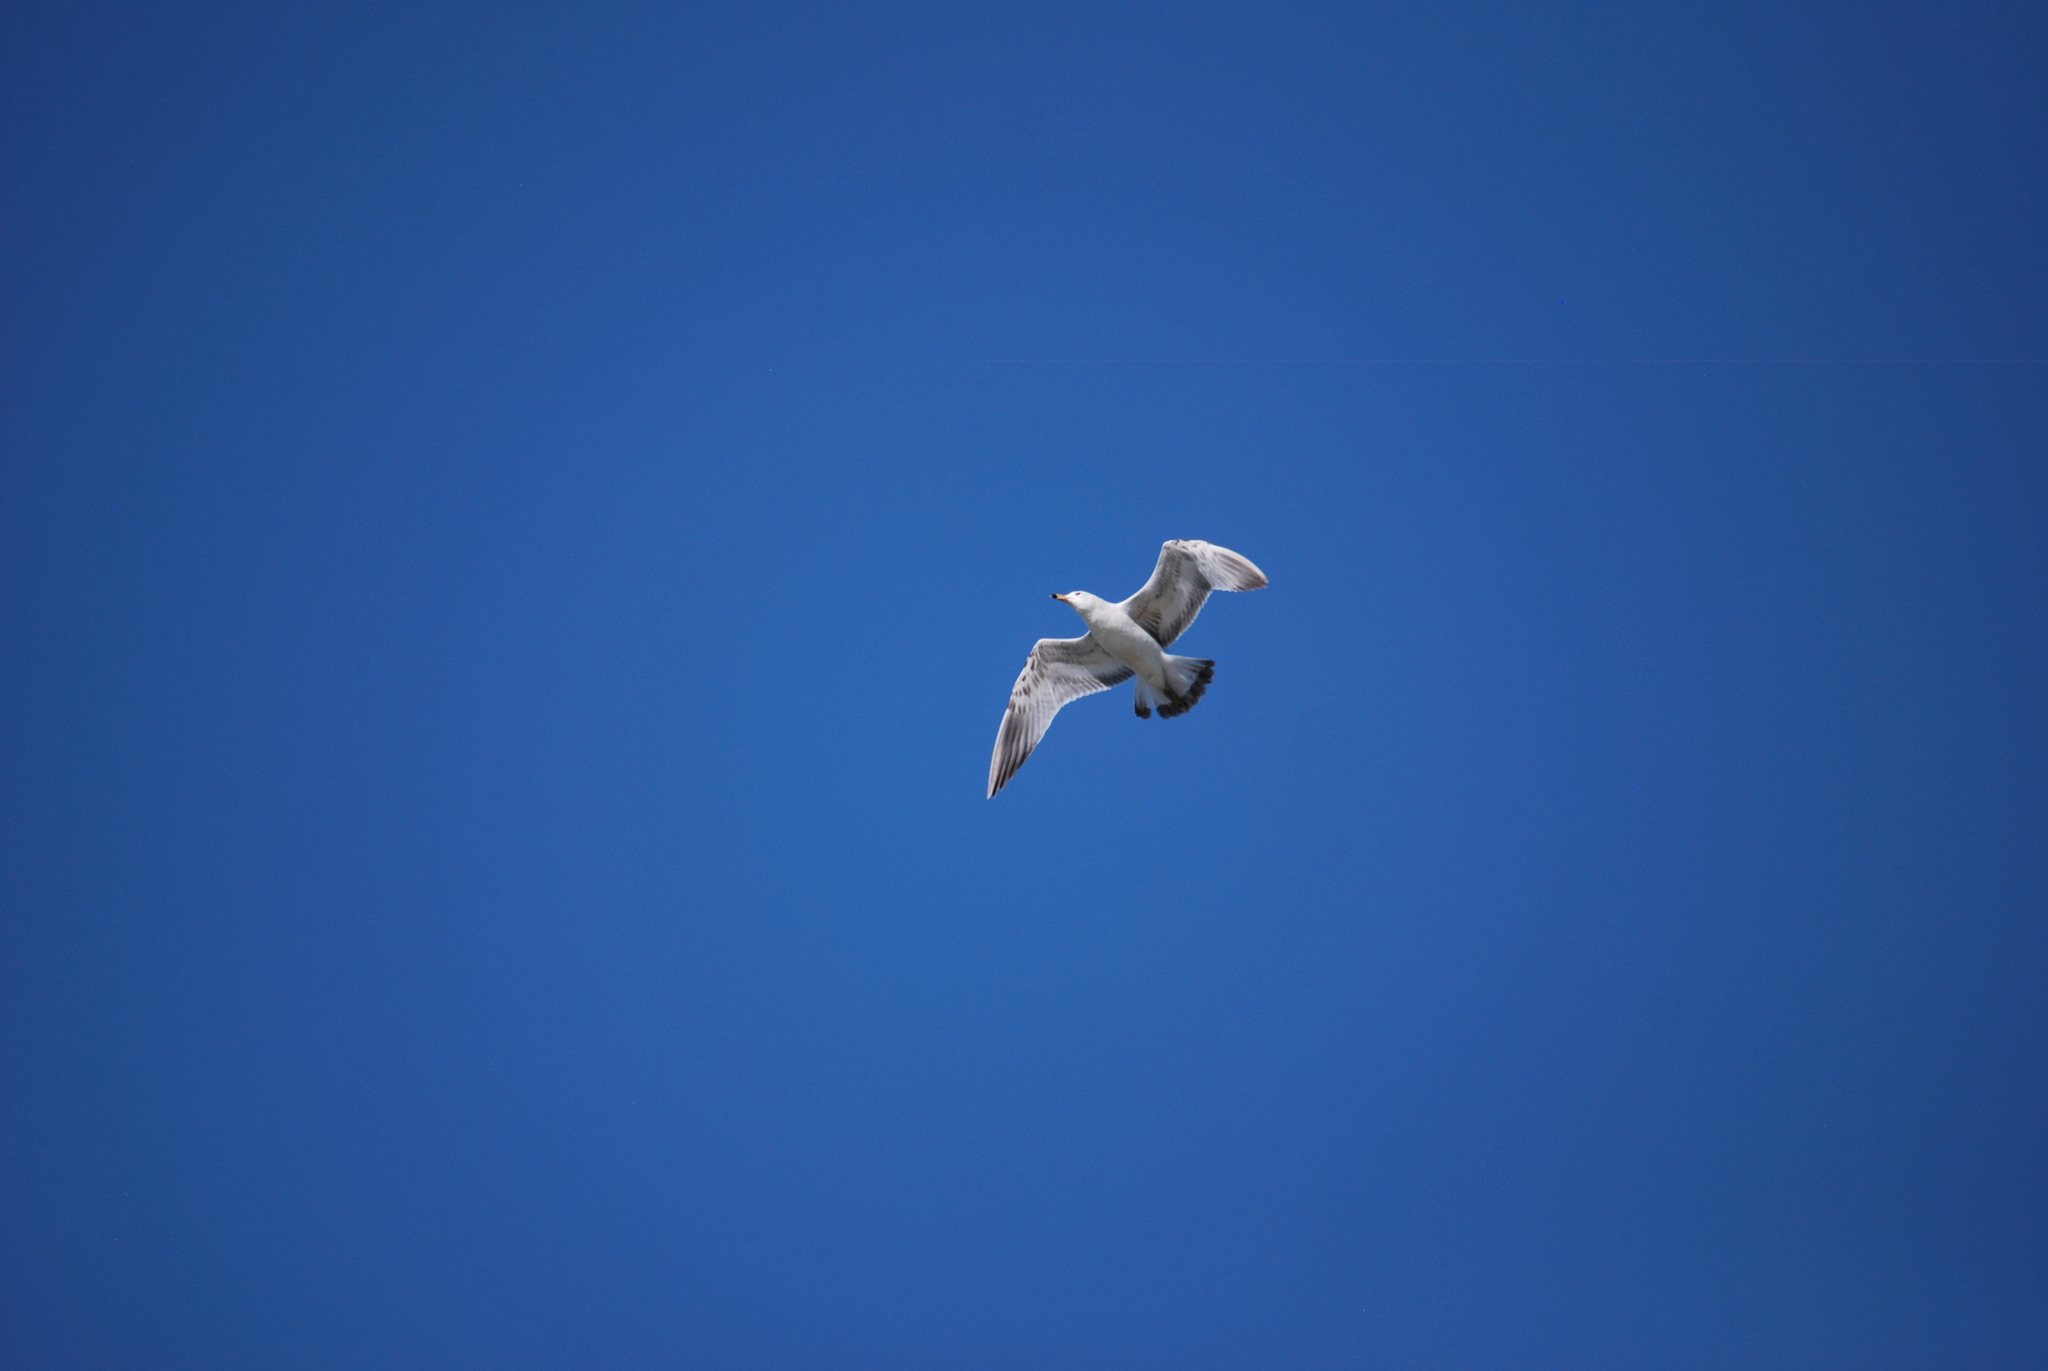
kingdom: Animalia
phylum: Chordata
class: Aves
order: Charadriiformes
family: Laridae
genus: Larus
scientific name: Larus delawarensis
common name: Ring-billed gull
